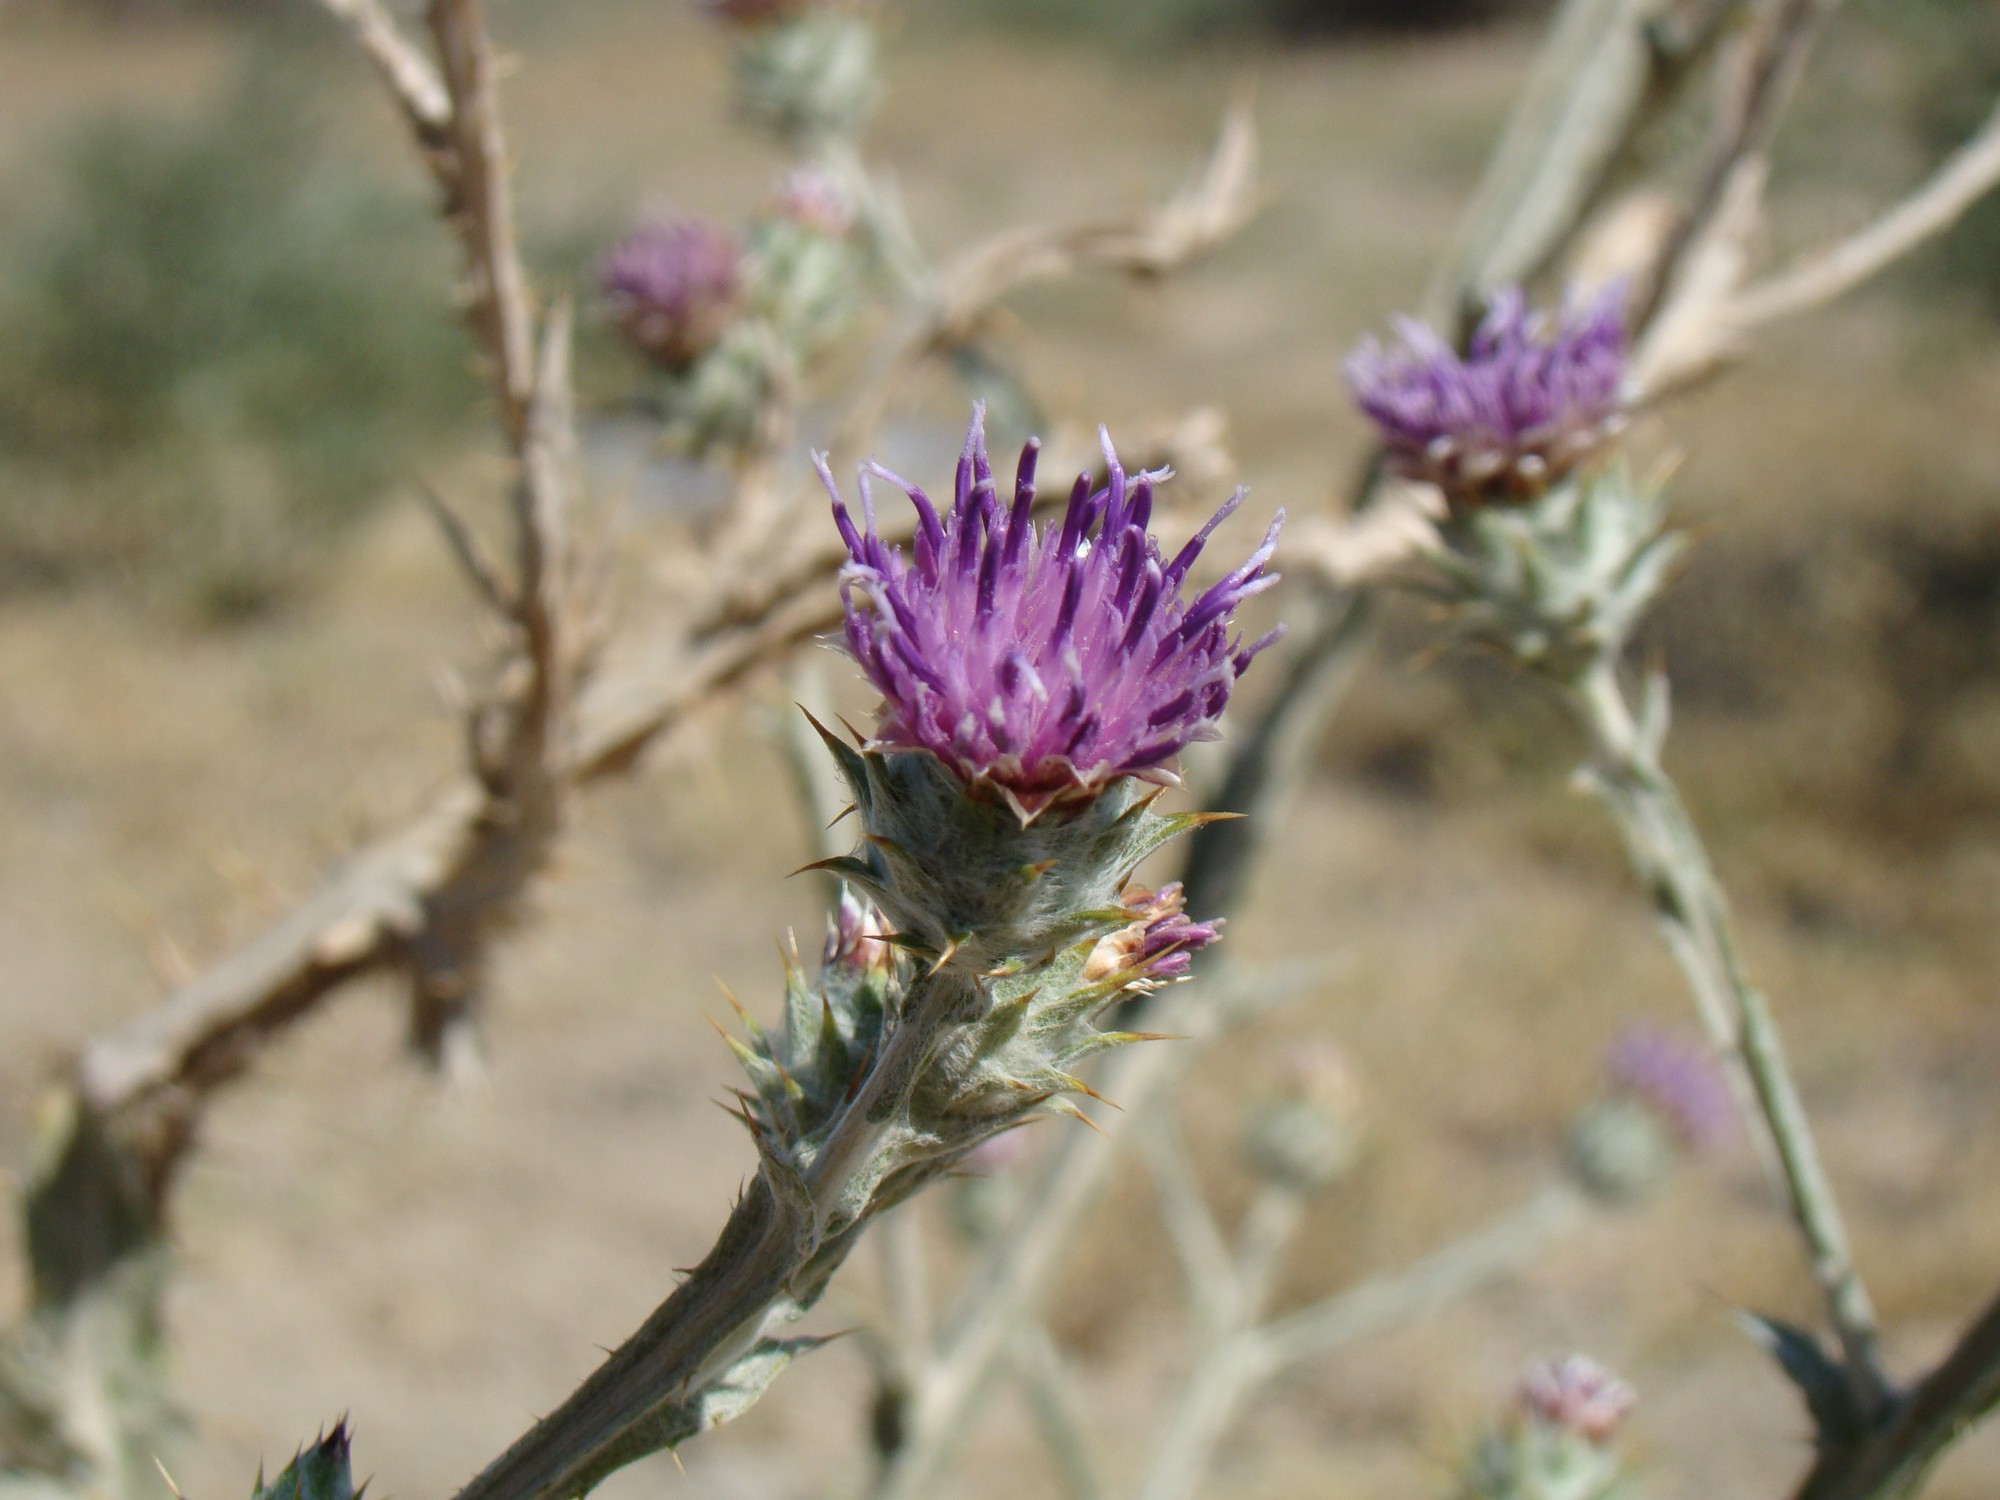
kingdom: Plantae
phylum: Tracheophyta
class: Magnoliopsida
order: Asterales
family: Asteraceae
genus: Cousinia
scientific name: Cousinia divaricata
